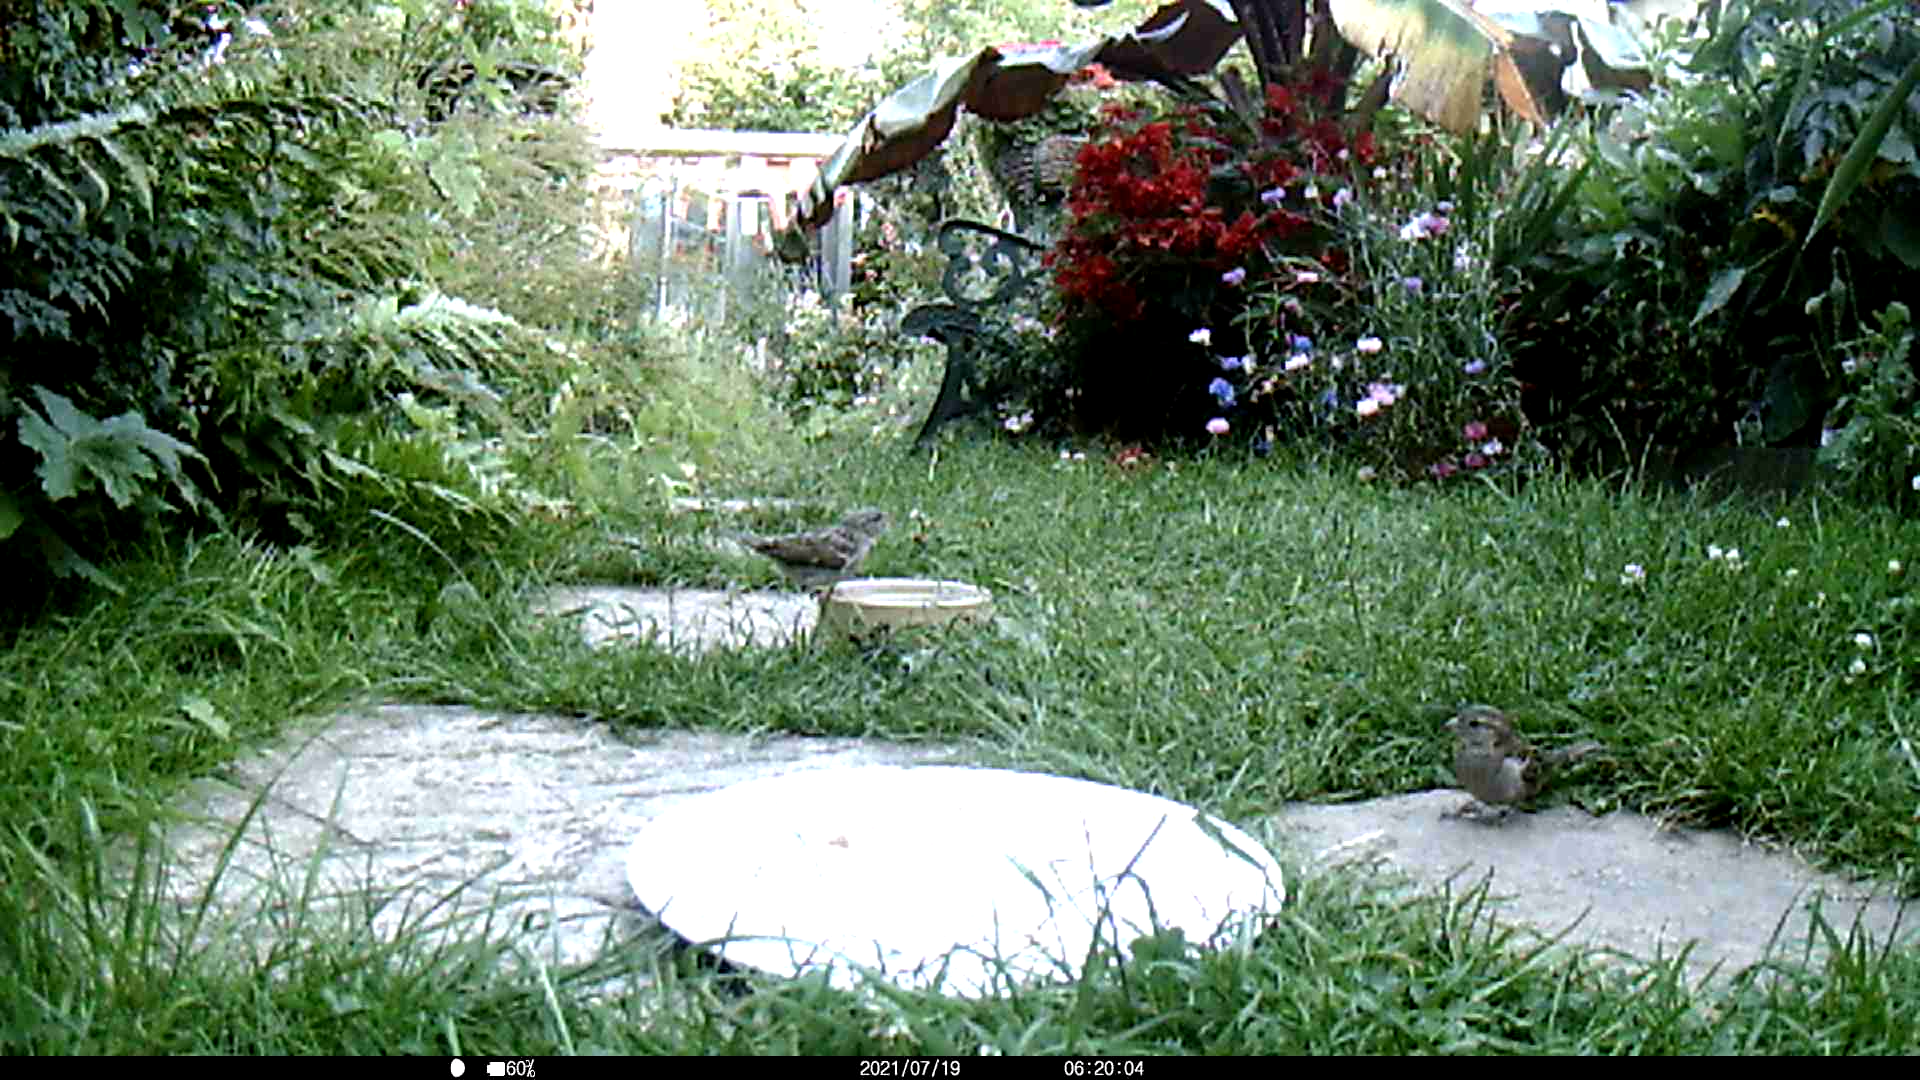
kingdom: Animalia
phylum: Chordata
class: Aves
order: Passeriformes
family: Passeridae
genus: Passer
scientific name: Passer domesticus
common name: House sparrow
